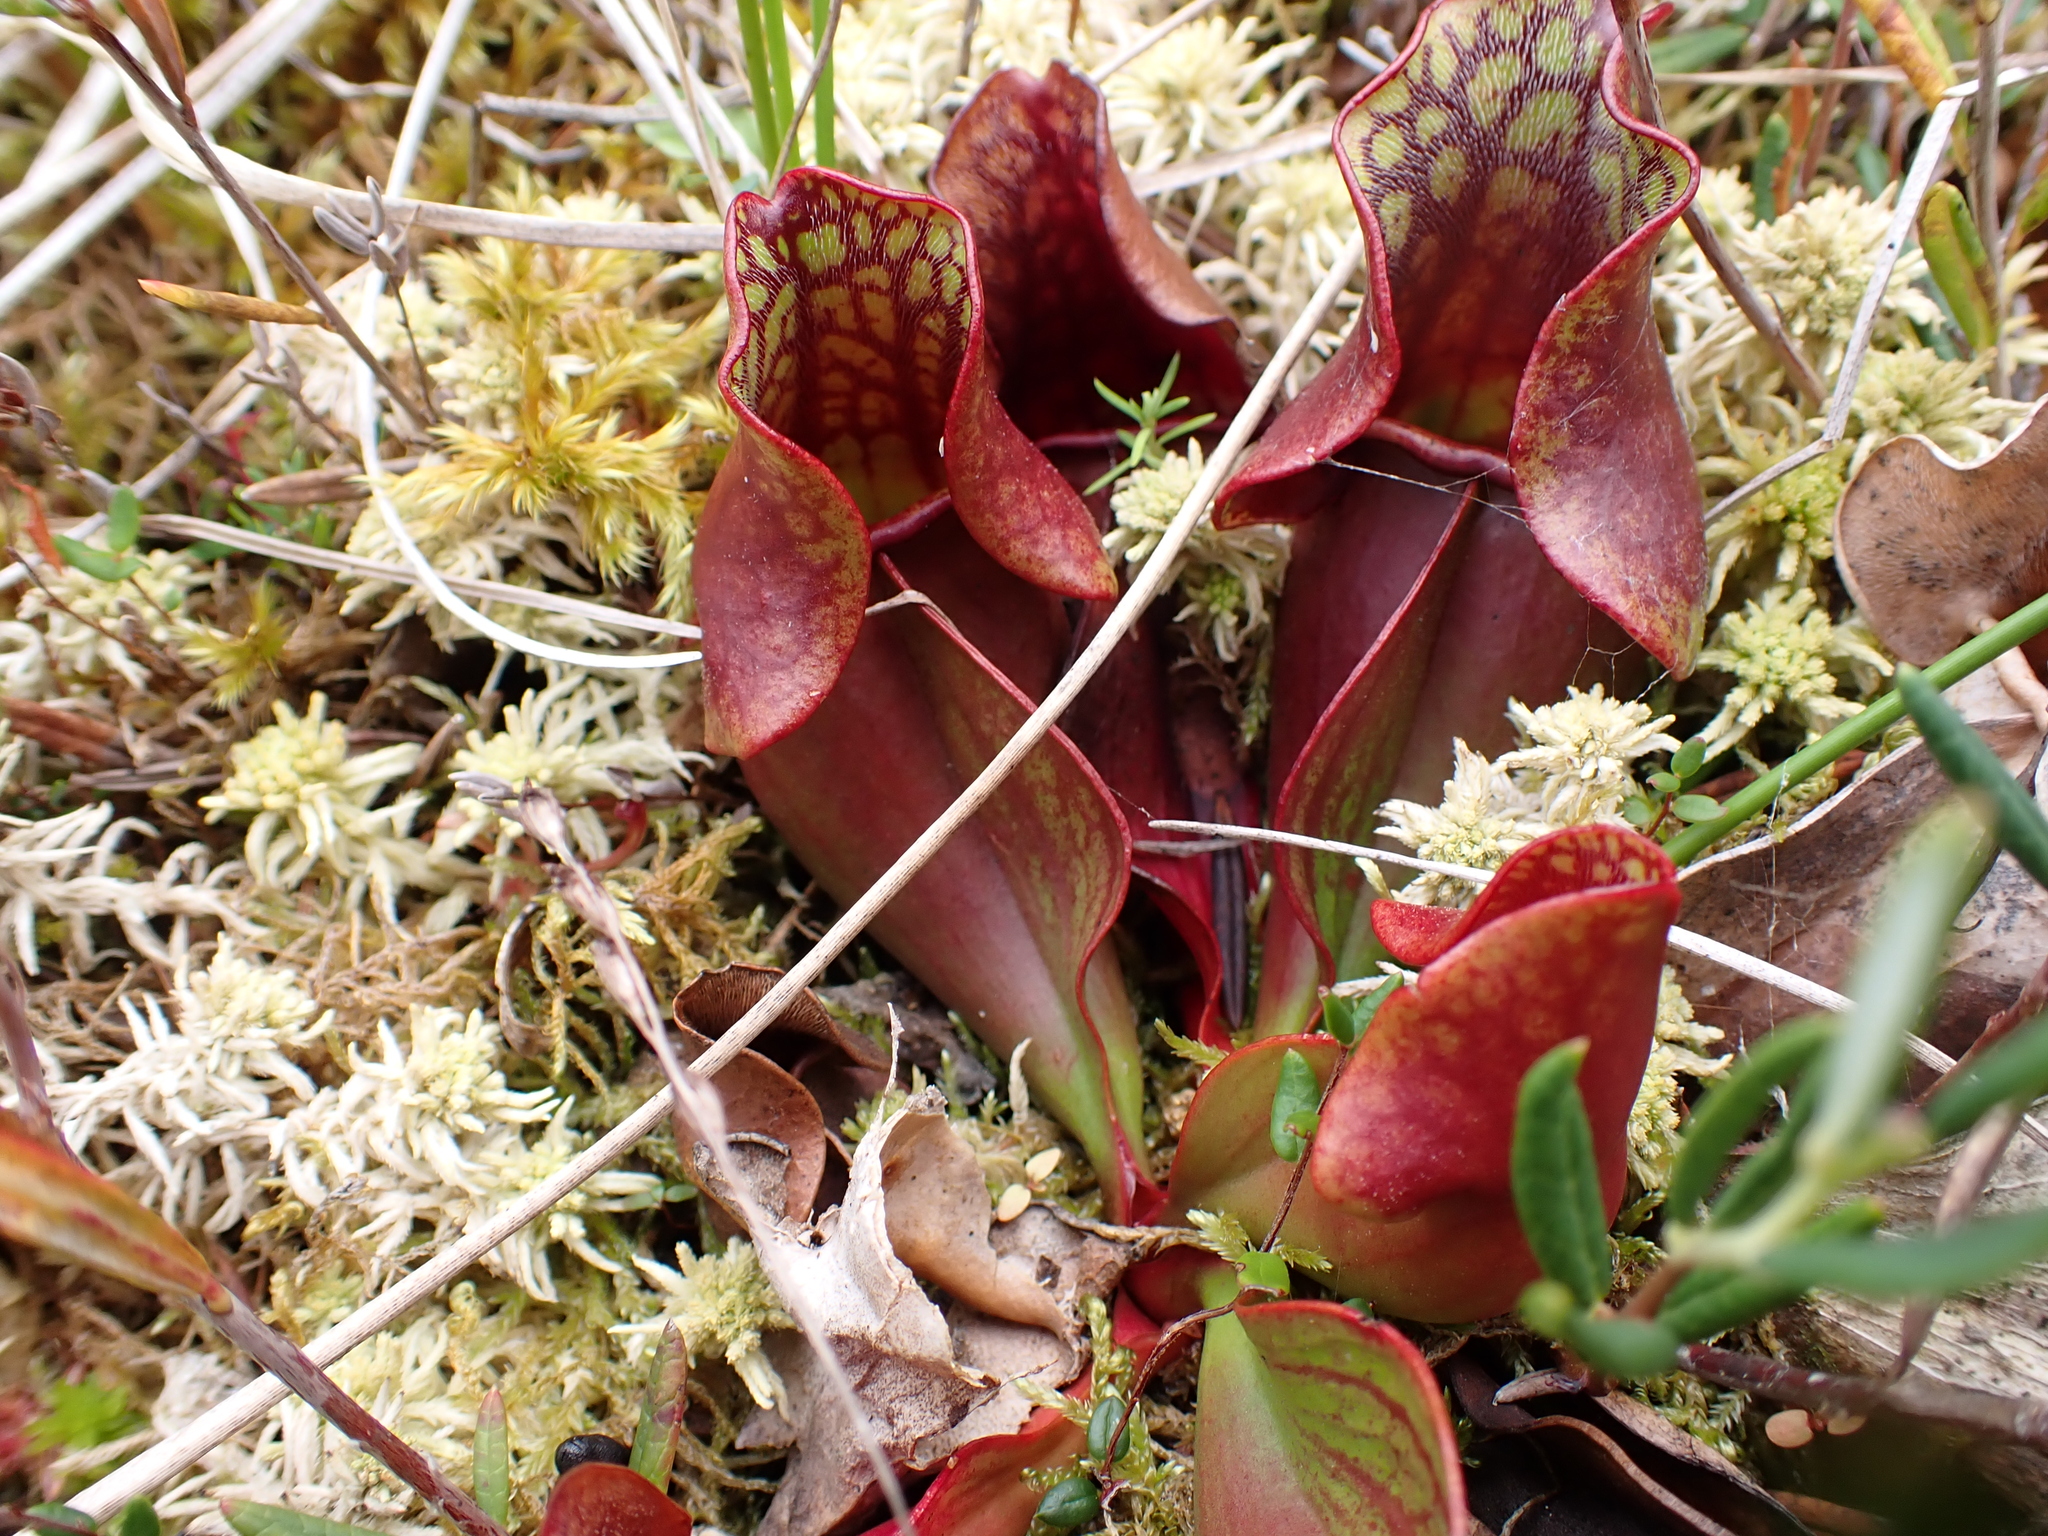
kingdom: Plantae
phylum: Tracheophyta
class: Magnoliopsida
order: Ericales
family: Sarraceniaceae
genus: Sarracenia
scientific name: Sarracenia purpurea
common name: Pitcherplant
